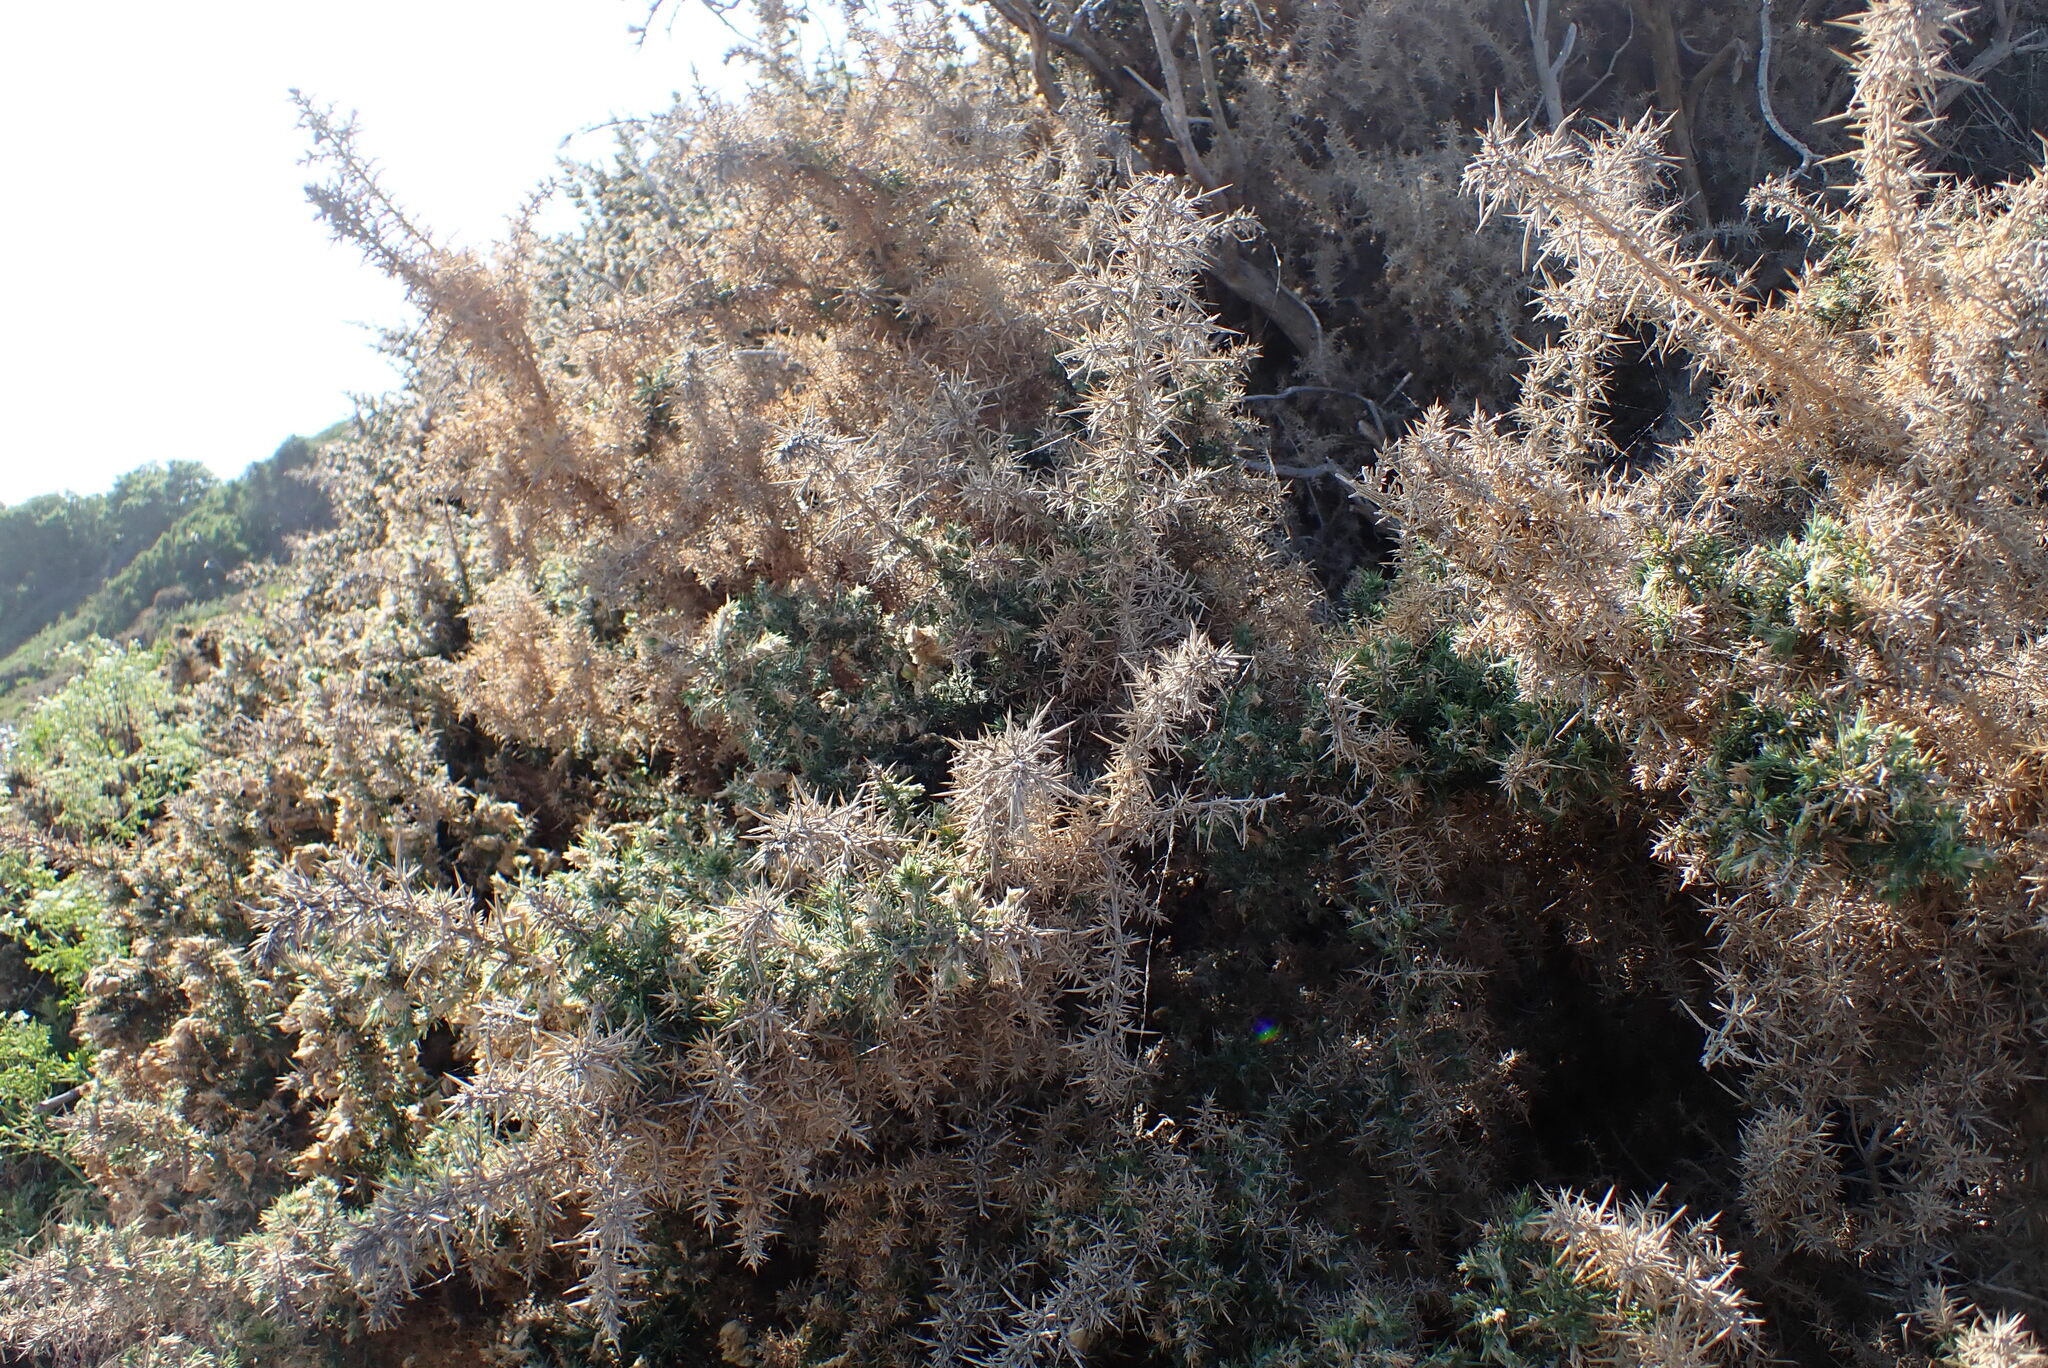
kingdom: Plantae
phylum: Tracheophyta
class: Magnoliopsida
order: Fabales
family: Fabaceae
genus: Ulex
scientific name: Ulex europaeus
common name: Common gorse
